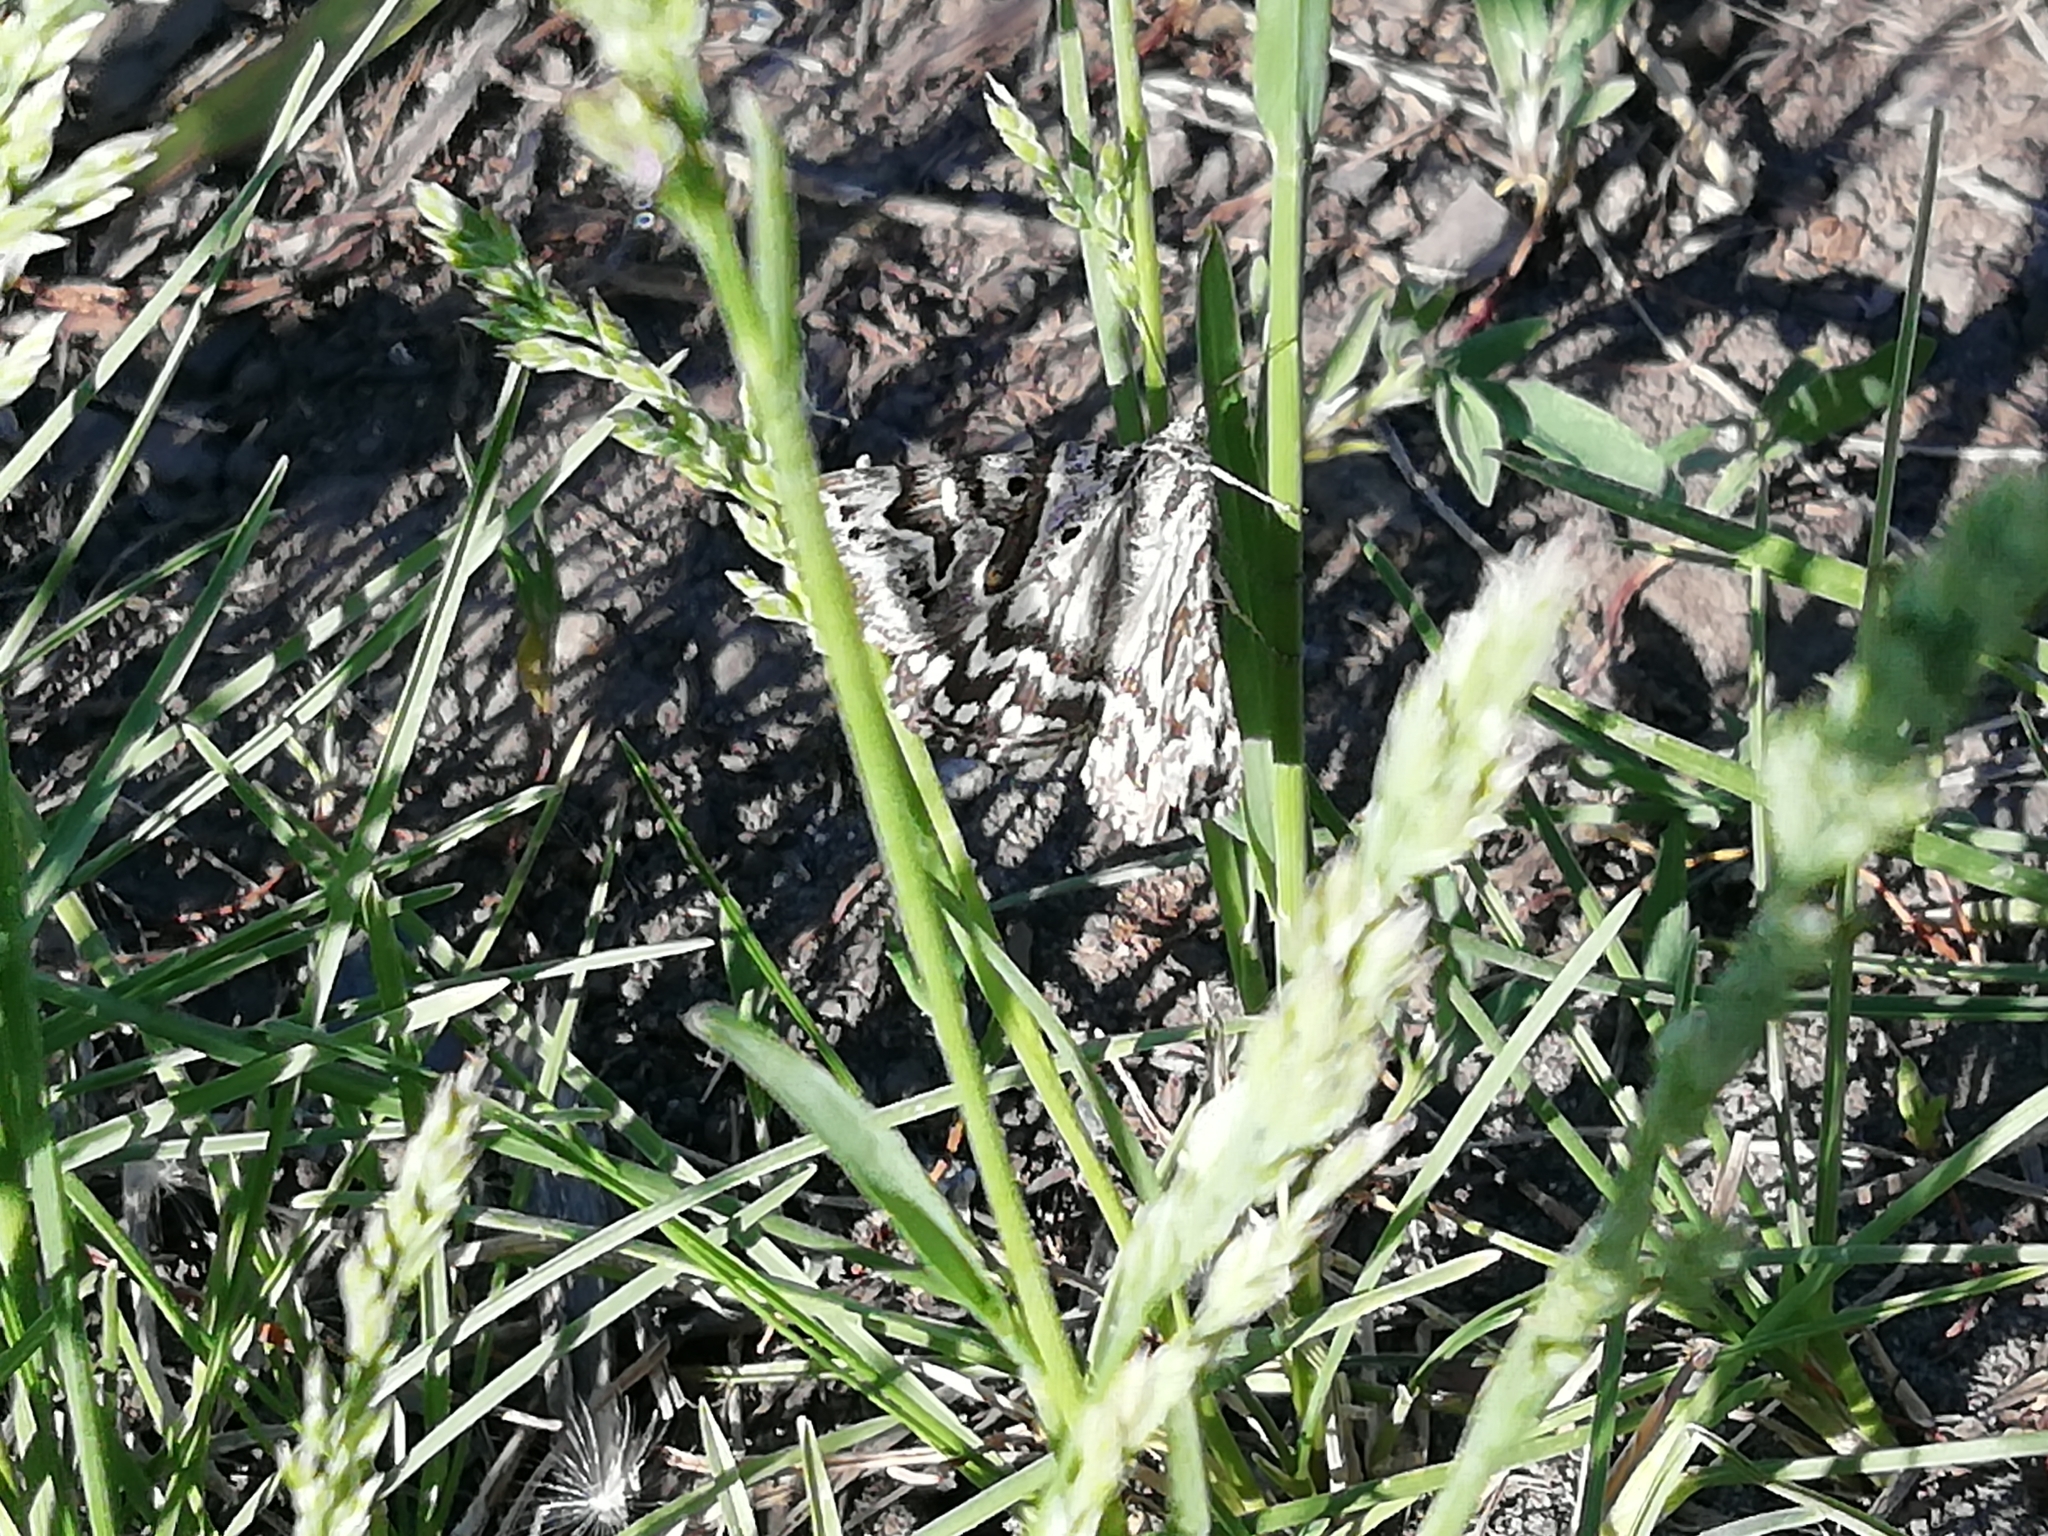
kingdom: Animalia
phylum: Arthropoda
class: Insecta
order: Lepidoptera
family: Erebidae
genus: Callistege
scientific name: Callistege mi
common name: Mother shipton
